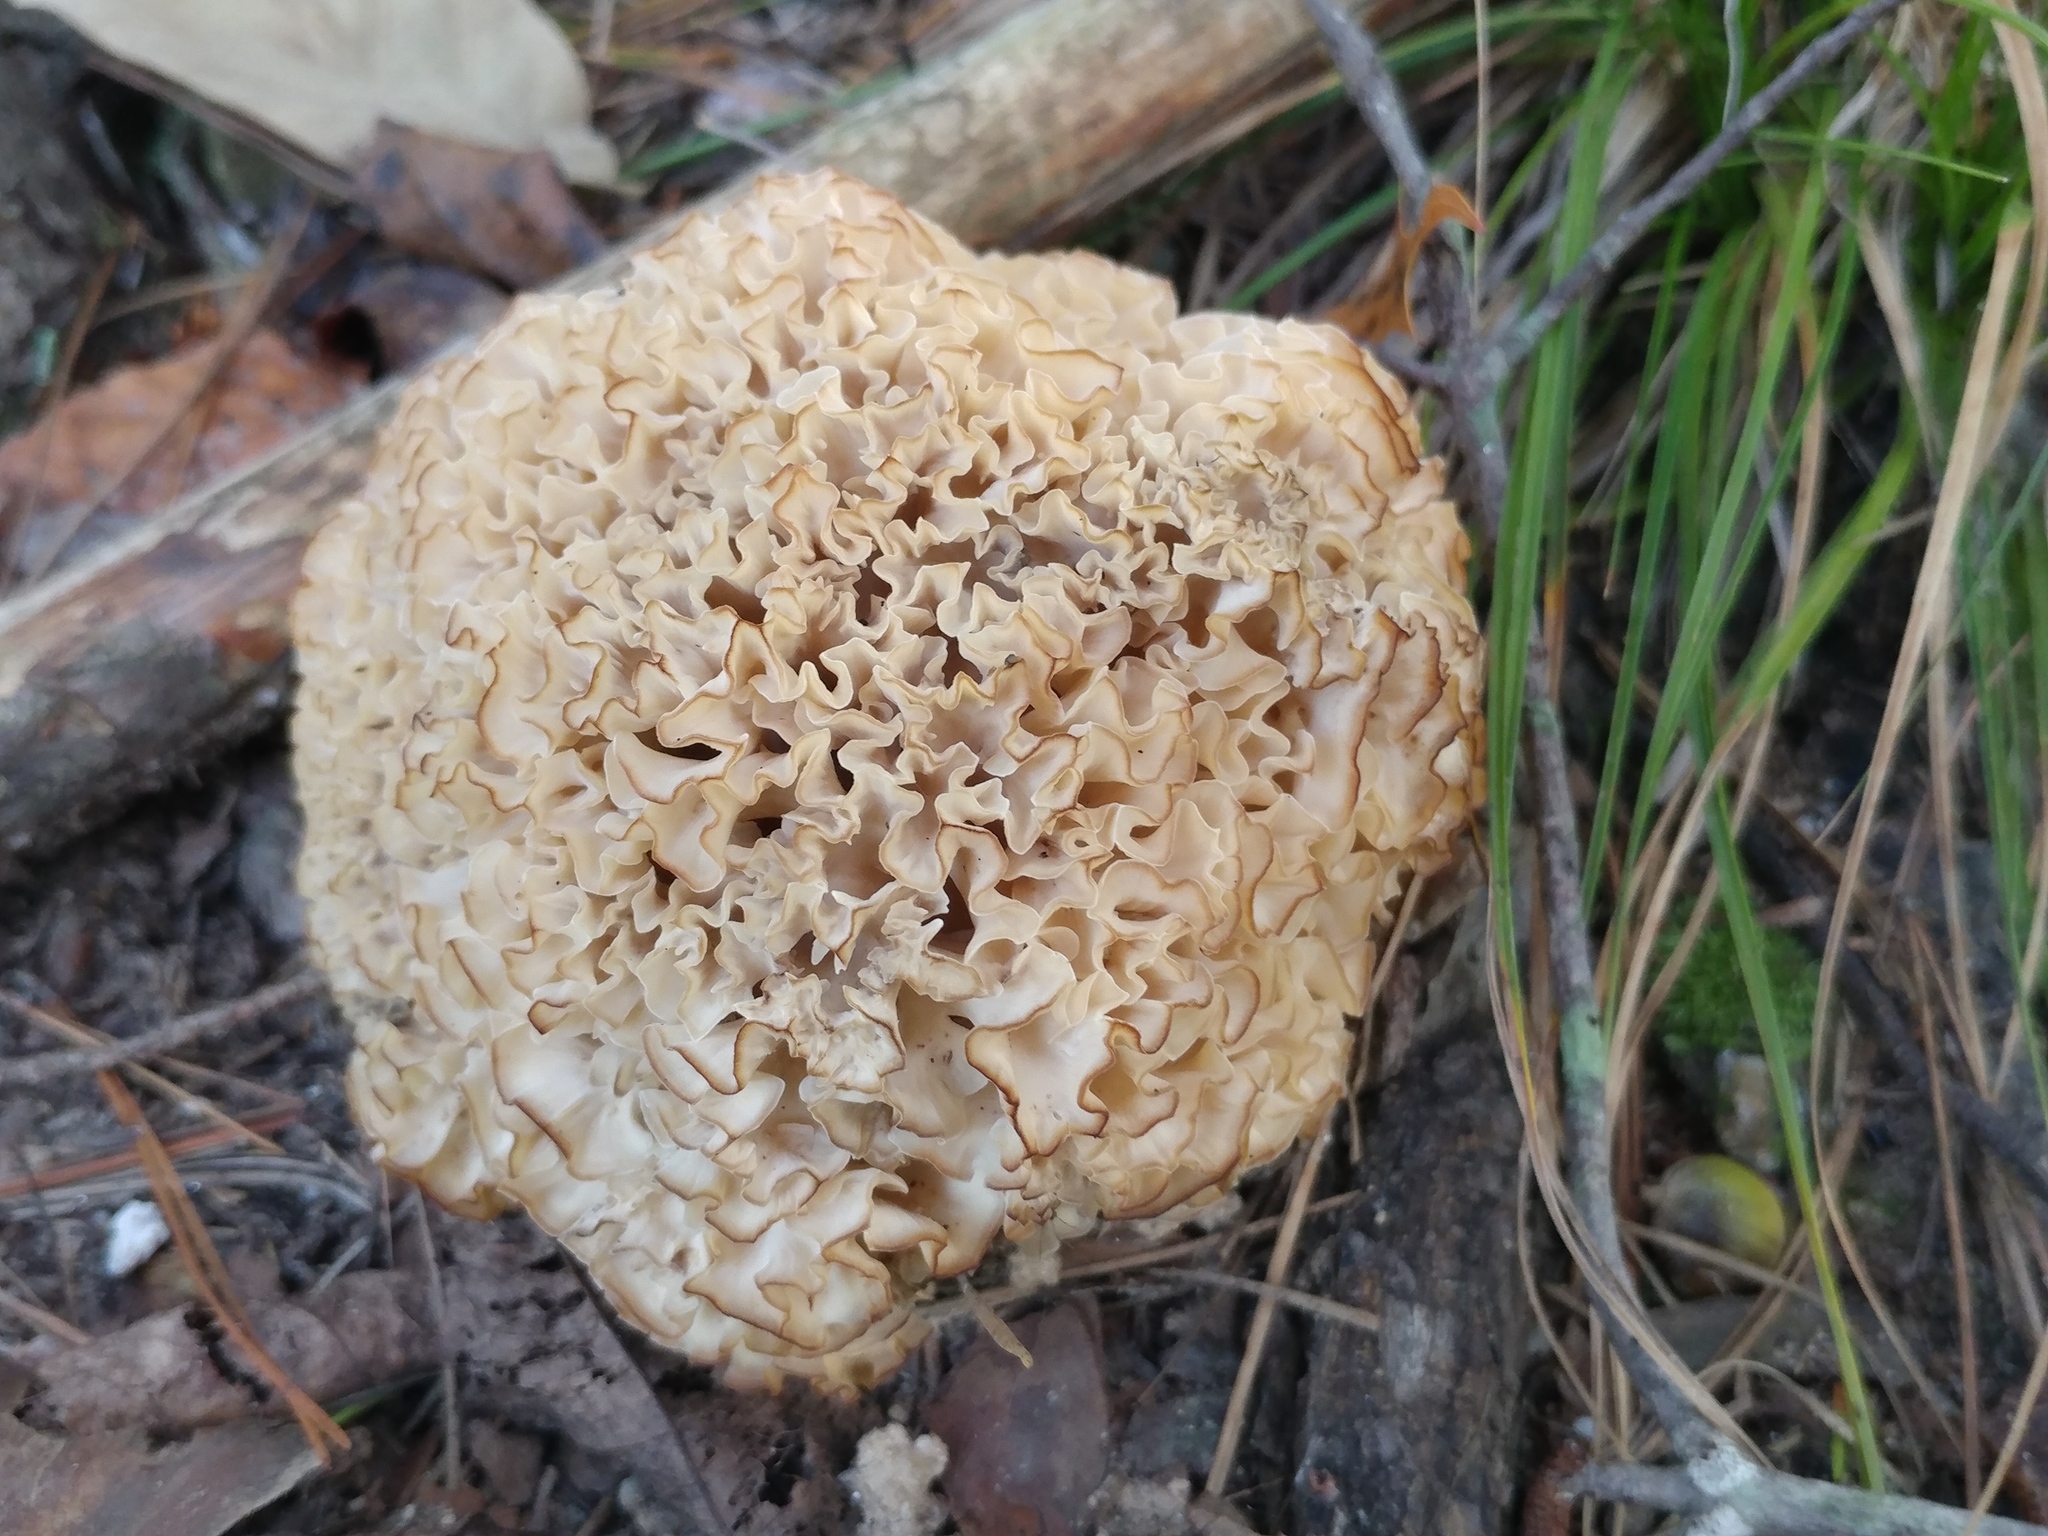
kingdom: Fungi
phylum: Basidiomycota
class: Agaricomycetes
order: Polyporales
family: Sparassidaceae
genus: Sparassis
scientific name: Sparassis americana
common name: American cauliflower mushroom
